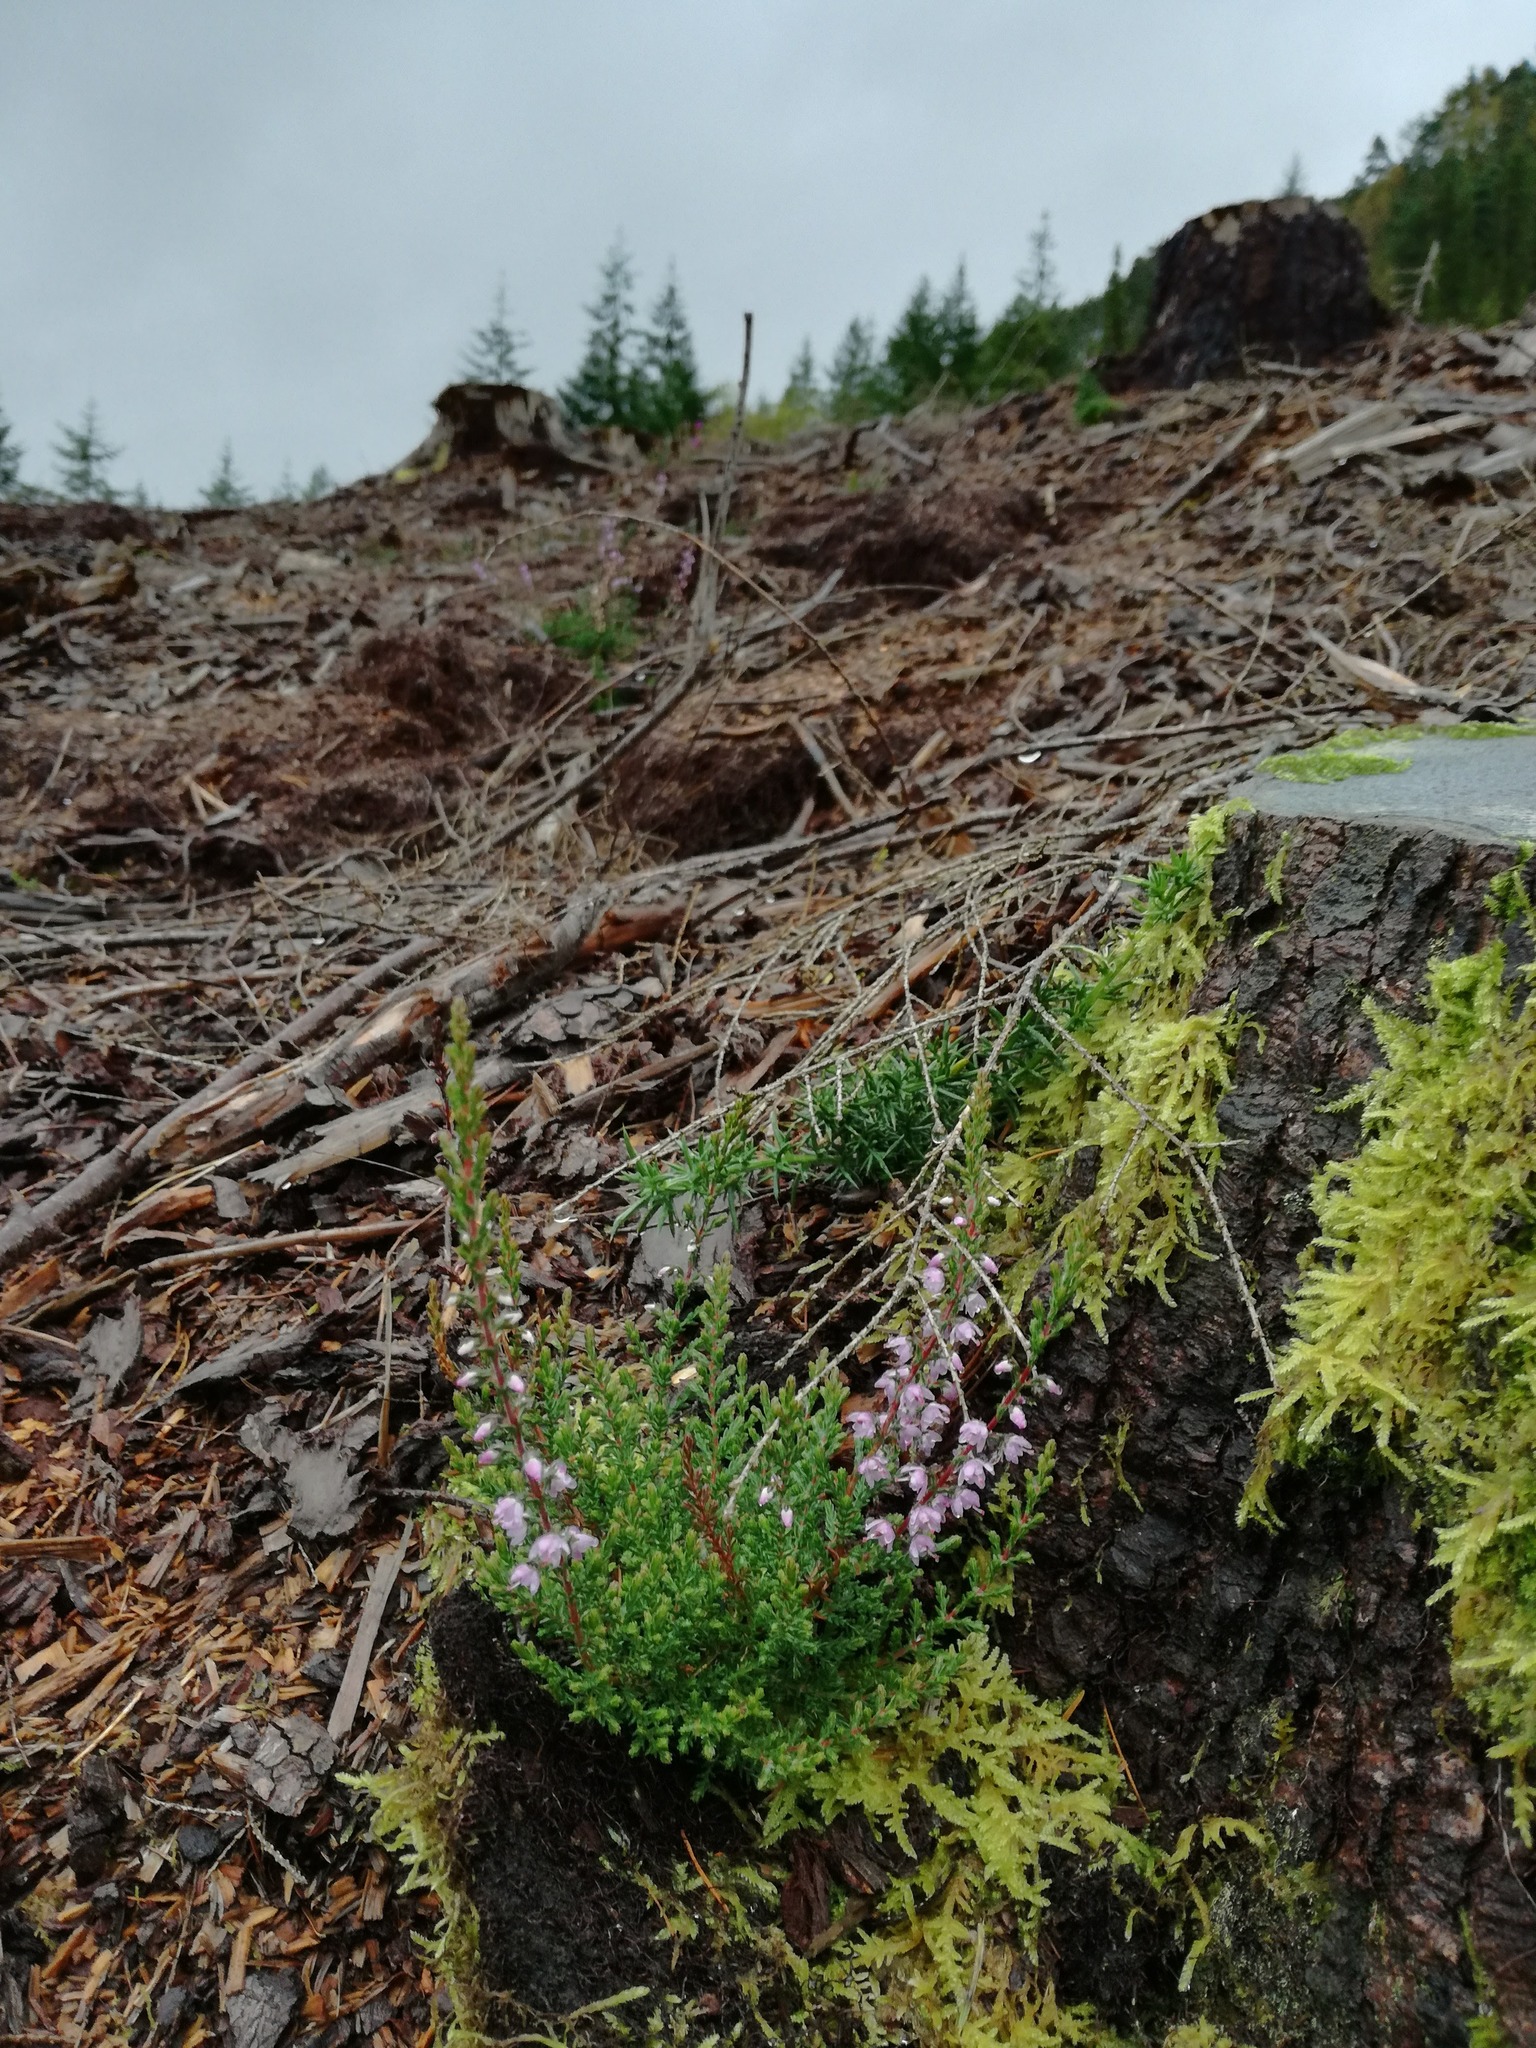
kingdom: Plantae
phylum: Tracheophyta
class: Magnoliopsida
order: Ericales
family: Ericaceae
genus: Calluna
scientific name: Calluna vulgaris
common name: Heather
